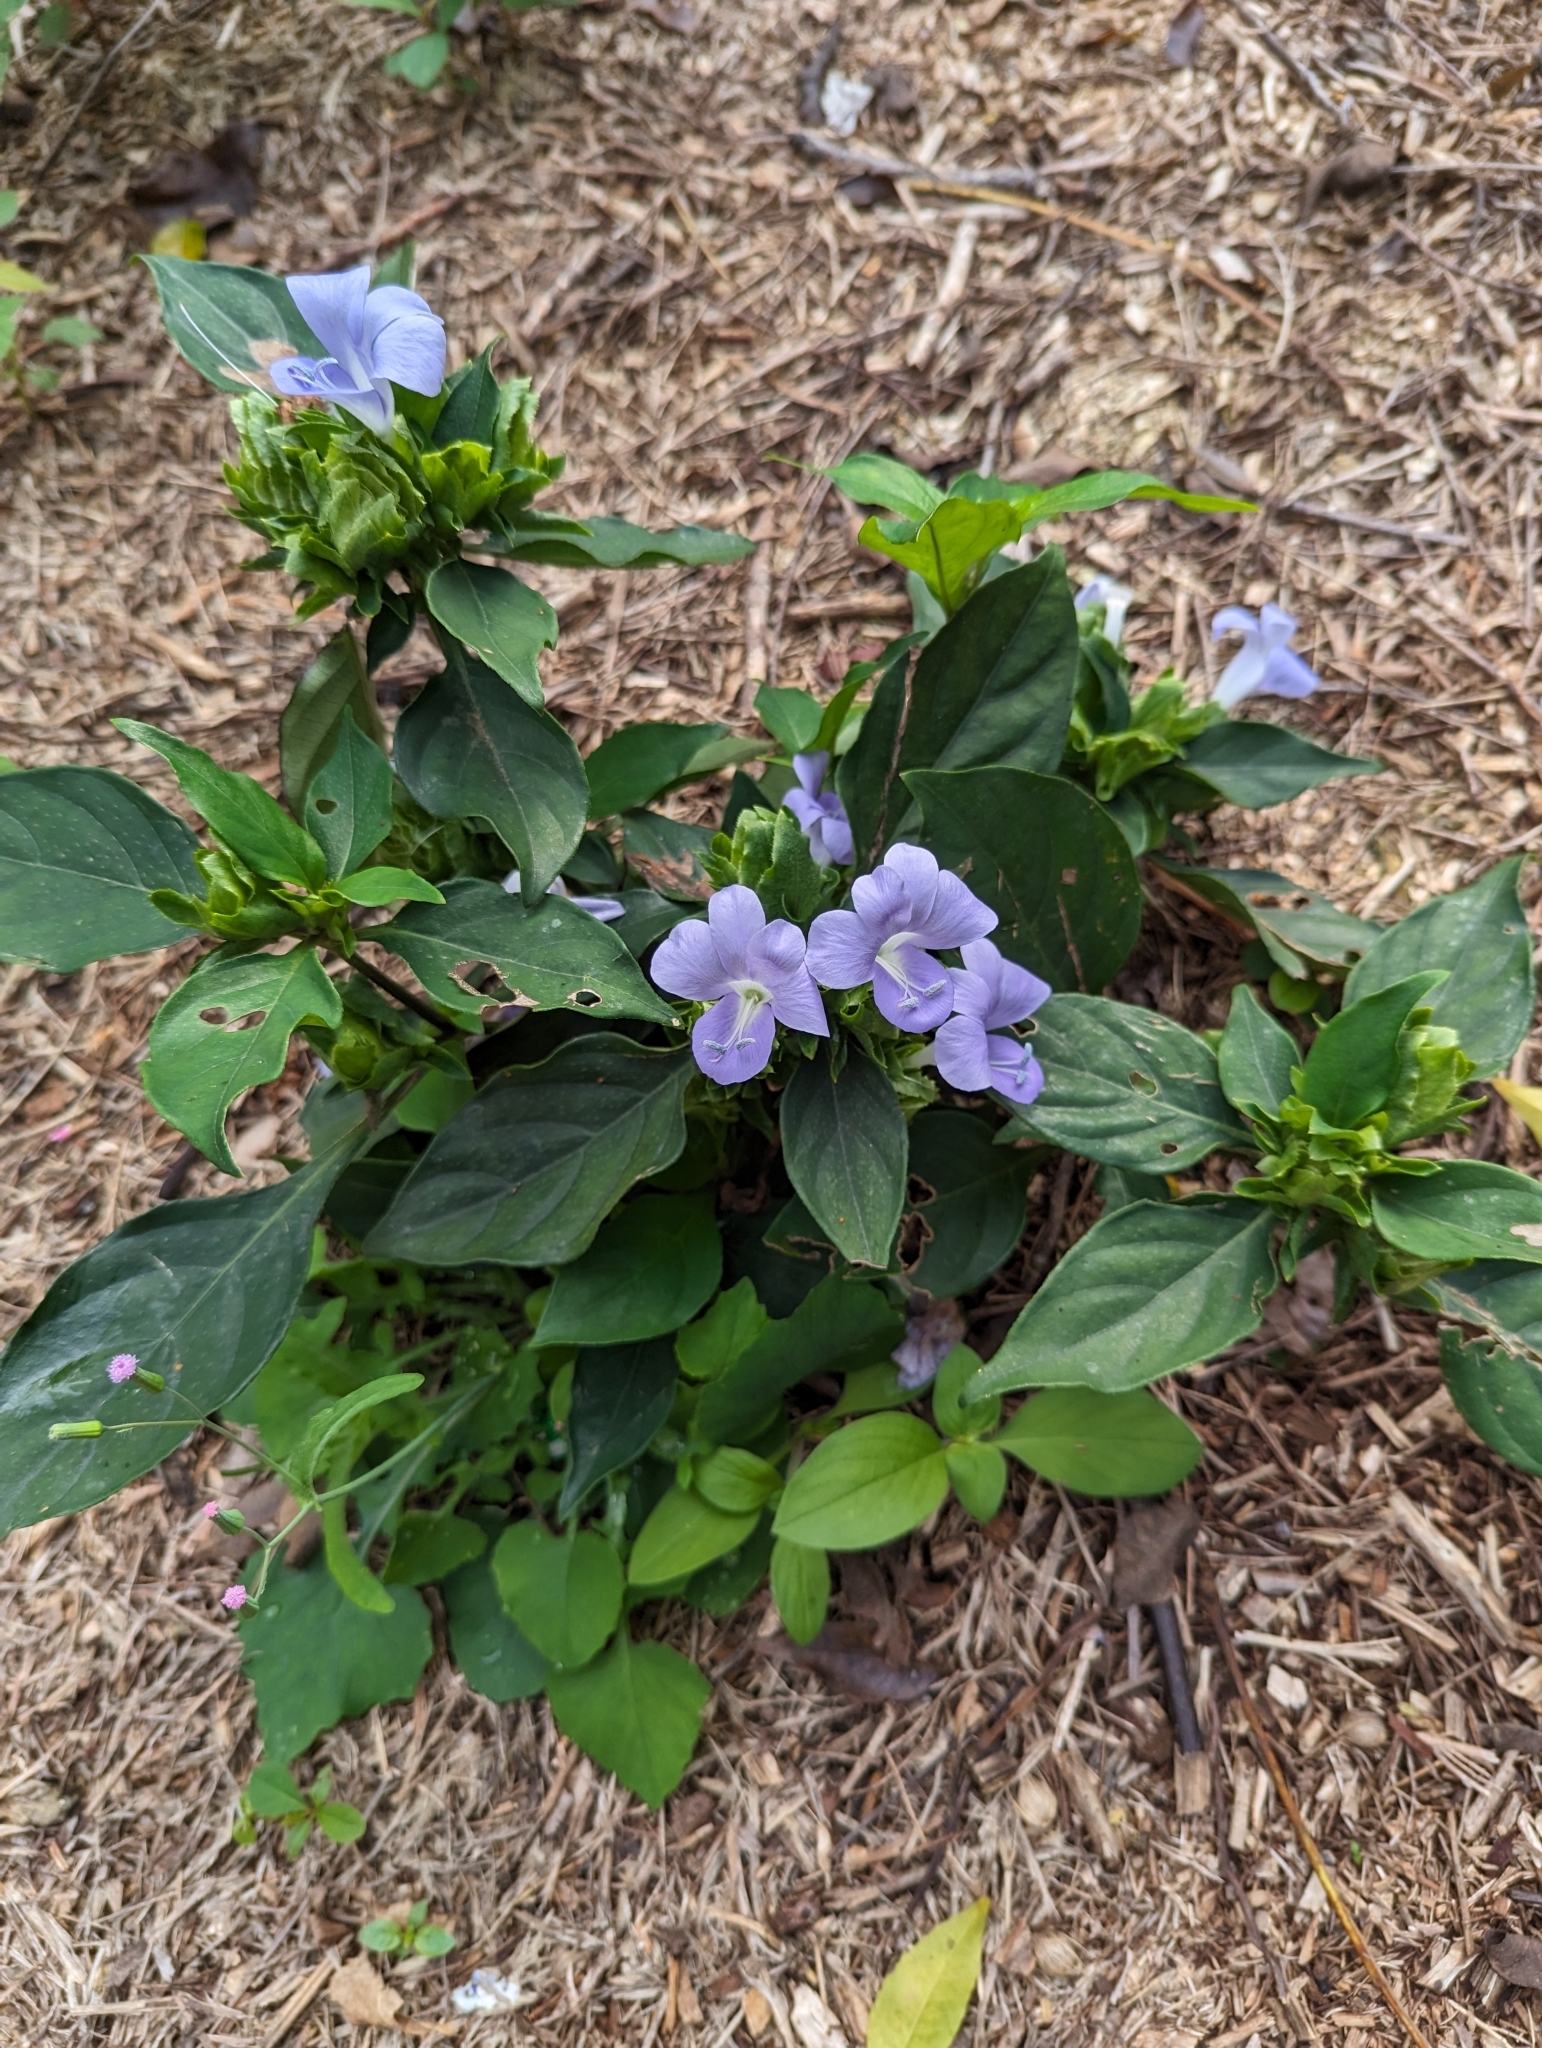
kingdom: Plantae
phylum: Tracheophyta
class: Magnoliopsida
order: Lamiales
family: Acanthaceae
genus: Barleria
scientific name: Barleria strigosa
